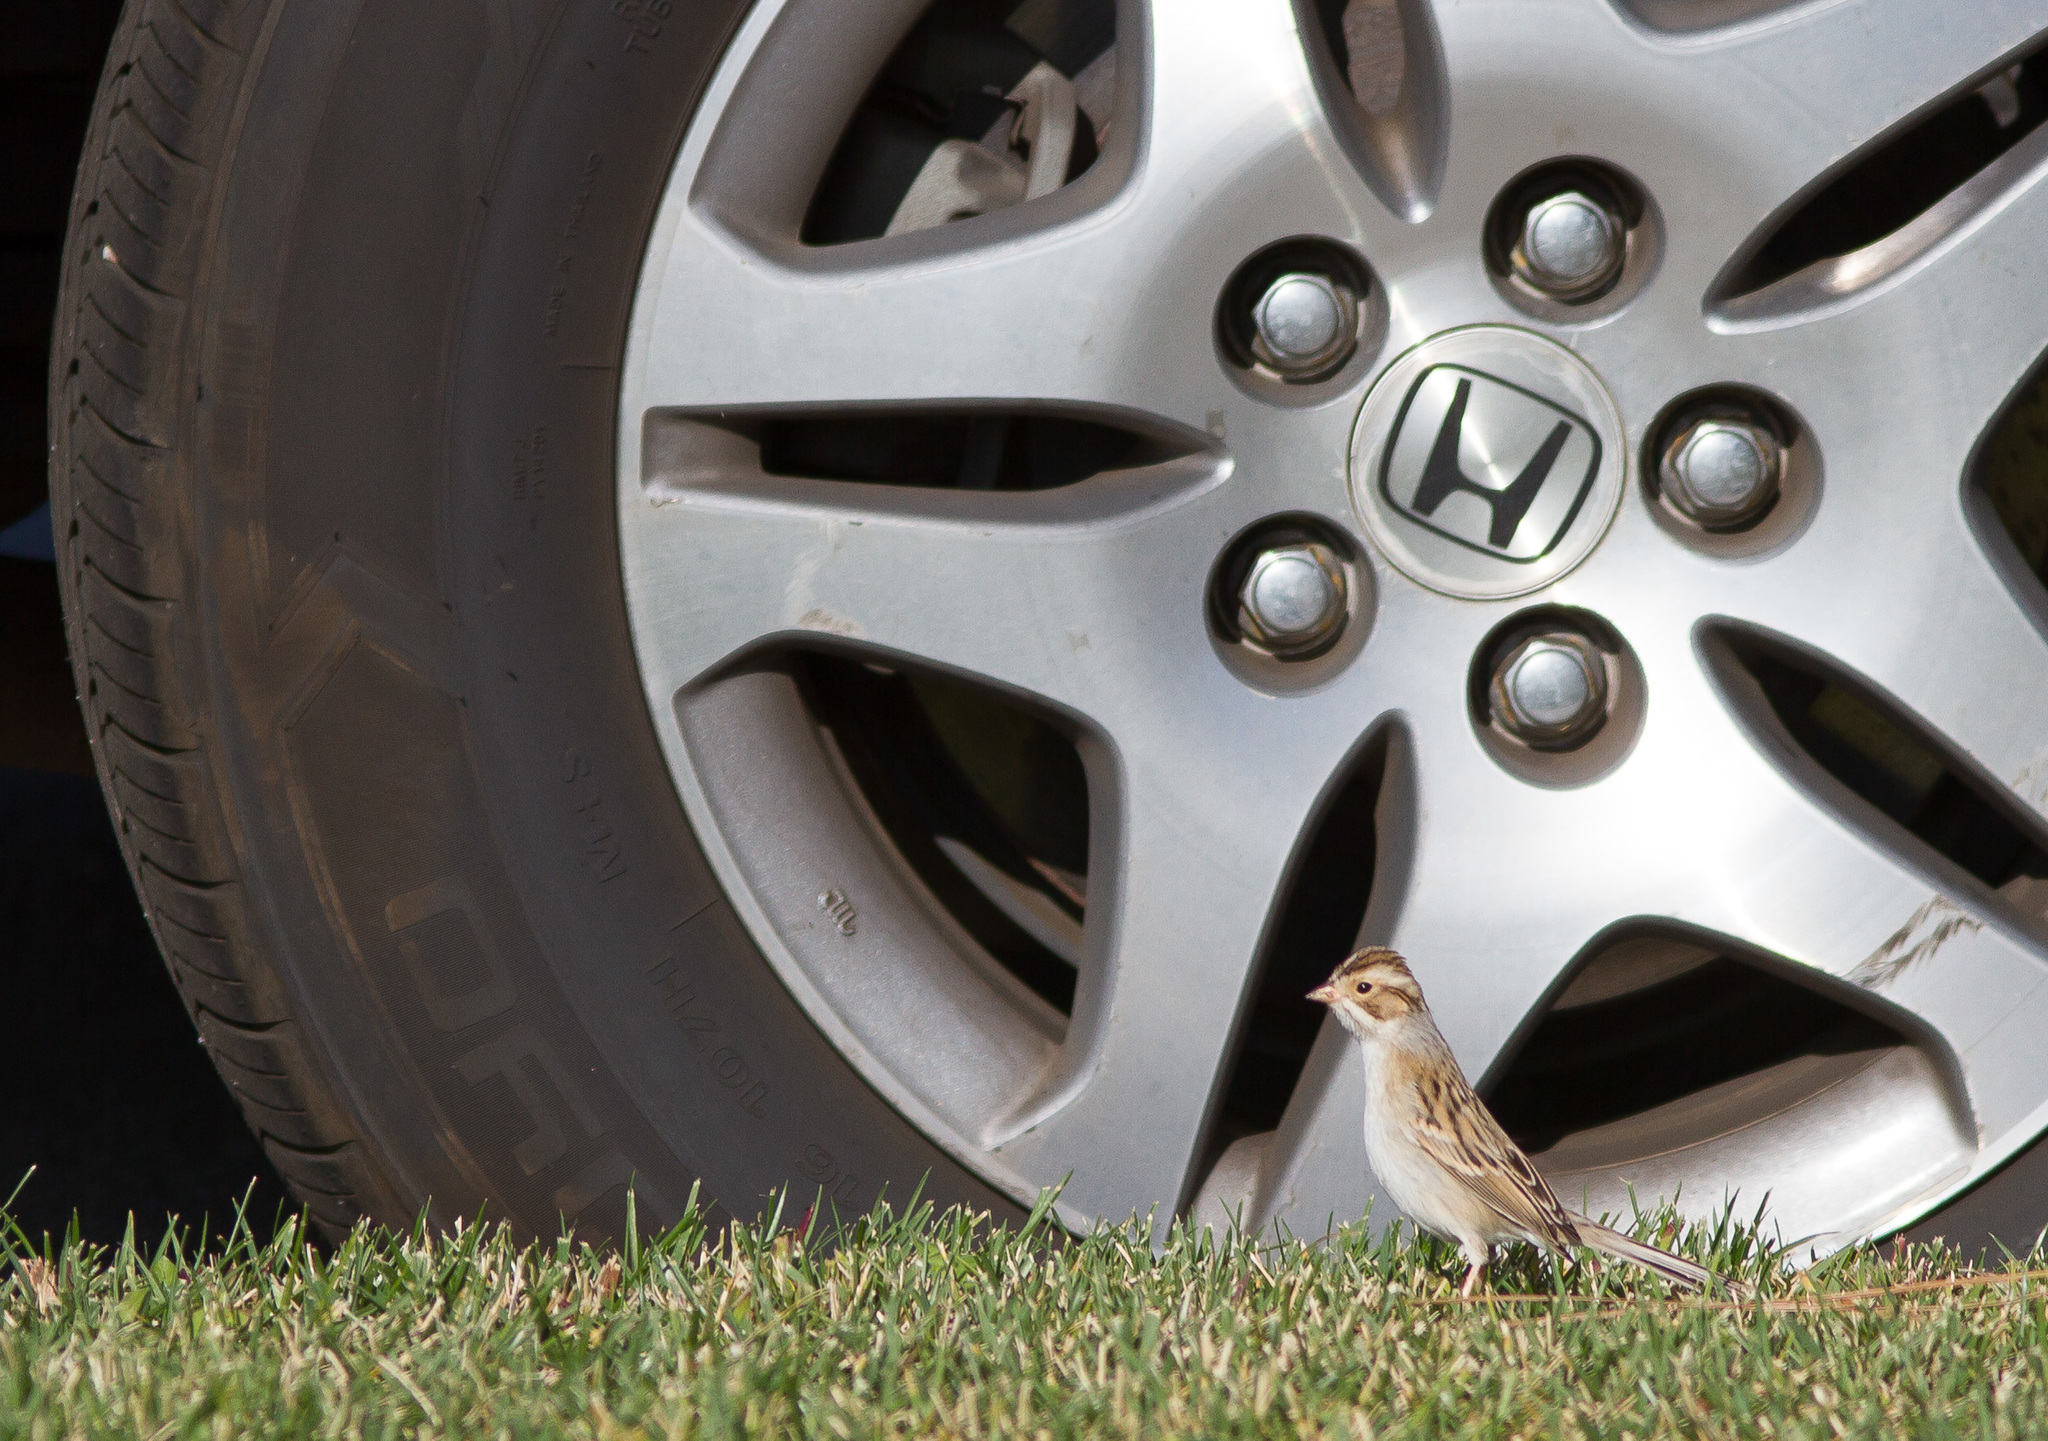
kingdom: Animalia
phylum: Chordata
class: Aves
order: Passeriformes
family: Passerellidae
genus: Spizella
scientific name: Spizella pallida
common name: Clay-colored sparrow
